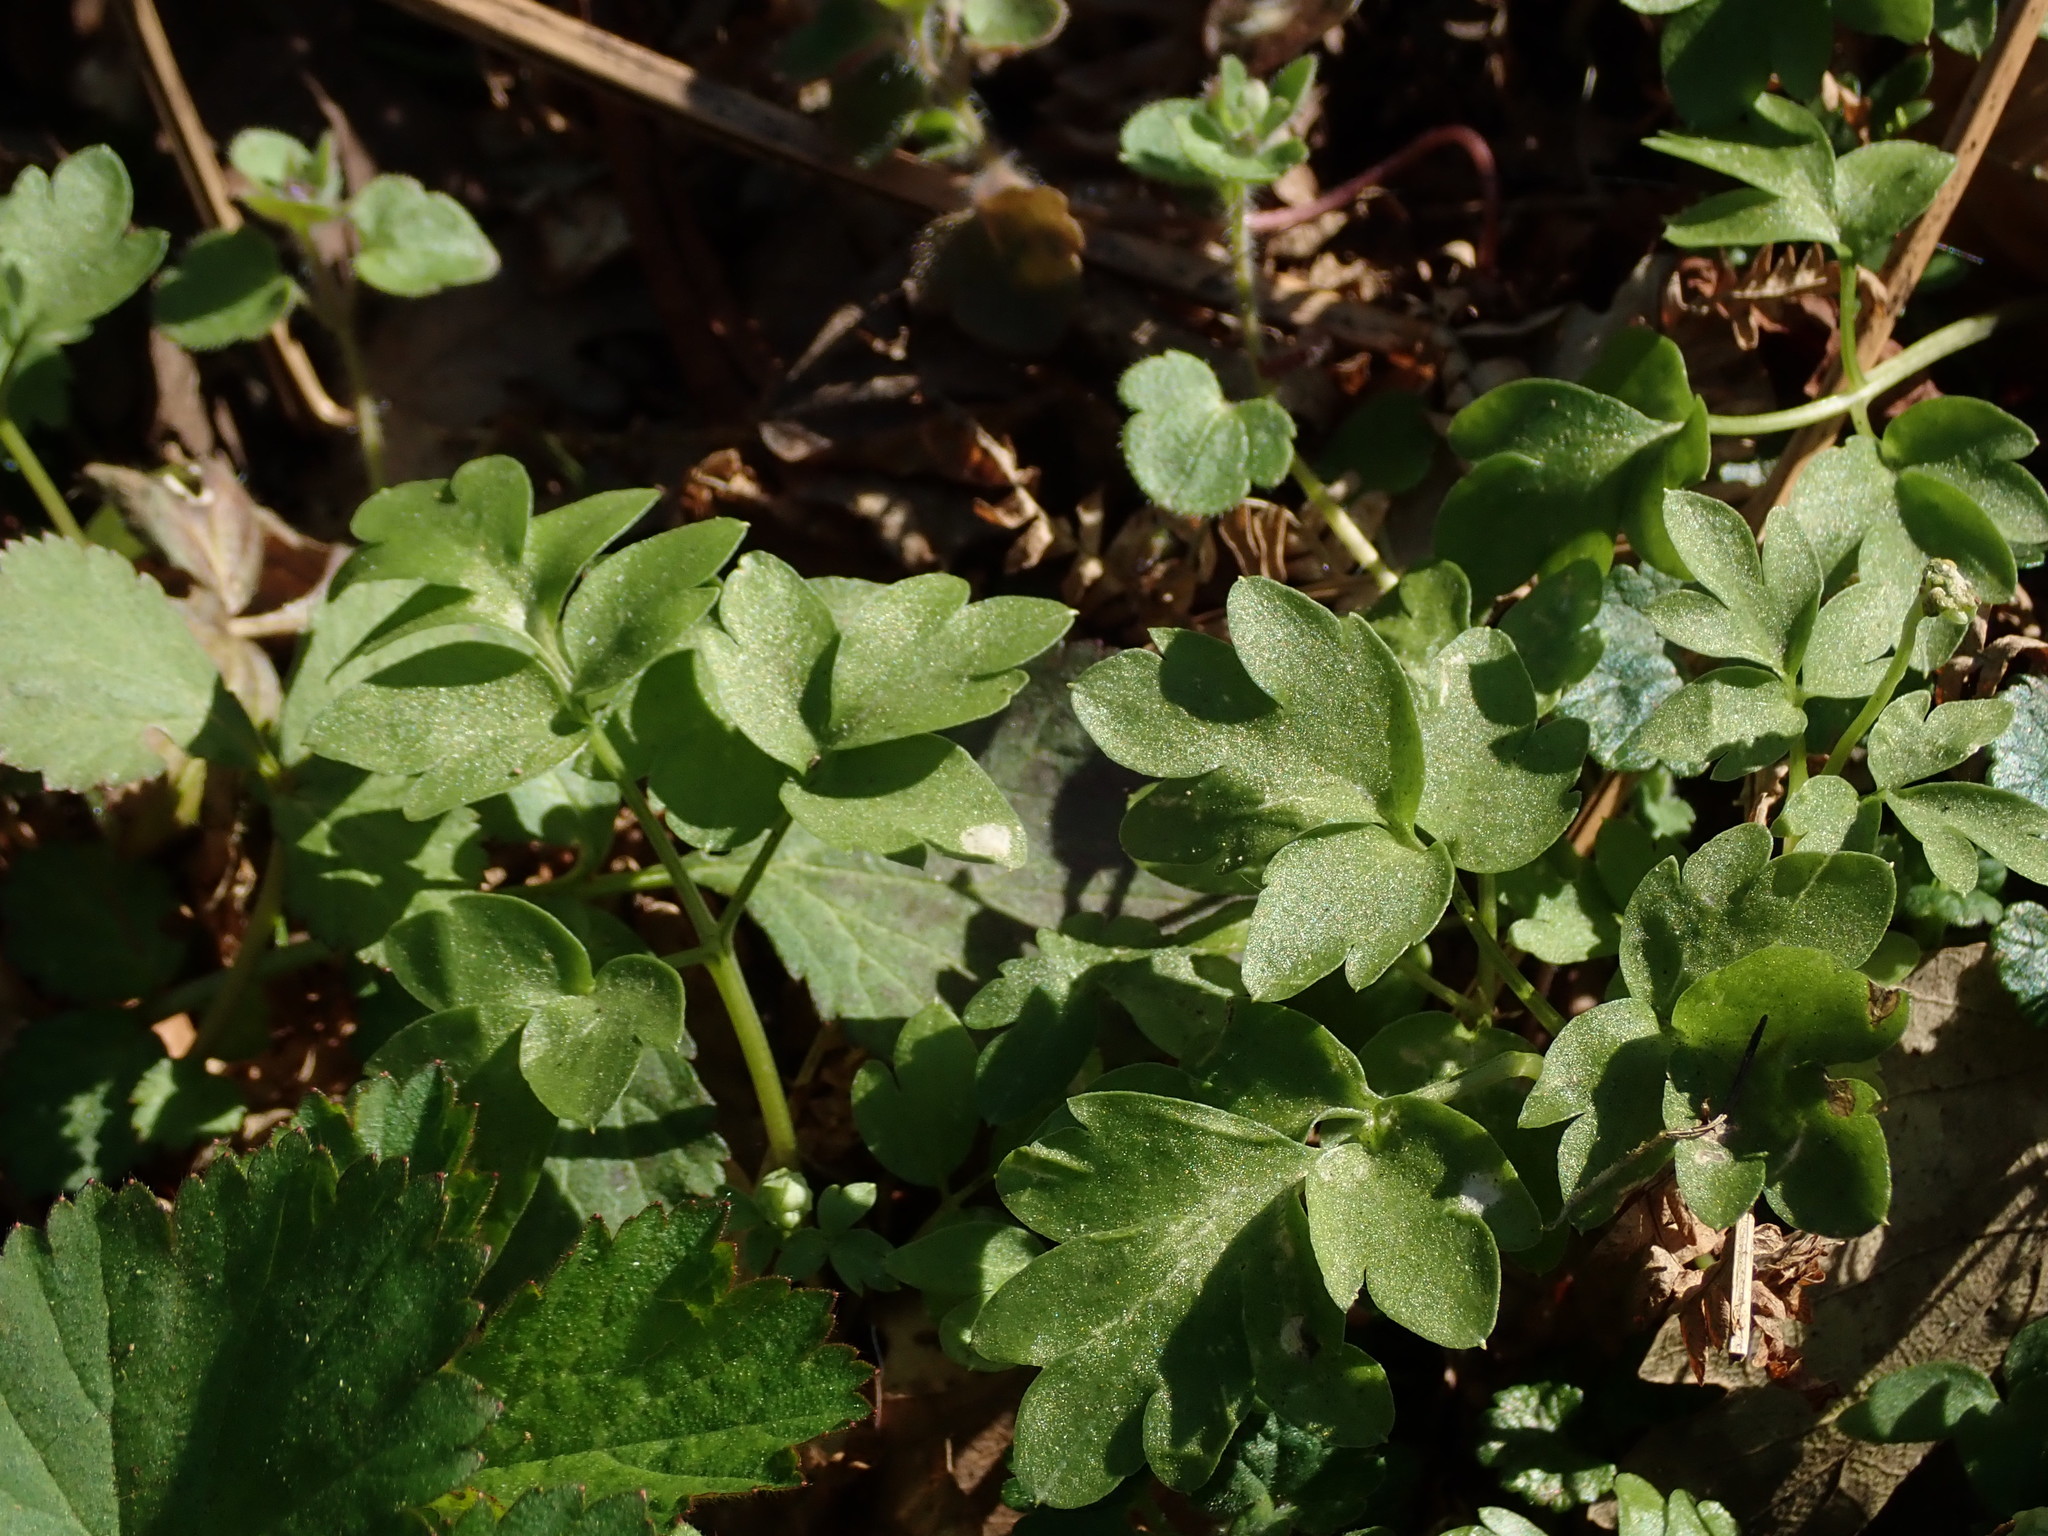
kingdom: Plantae
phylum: Tracheophyta
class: Magnoliopsida
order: Dipsacales
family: Viburnaceae
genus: Adoxa
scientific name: Adoxa moschatellina
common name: Moschatel
